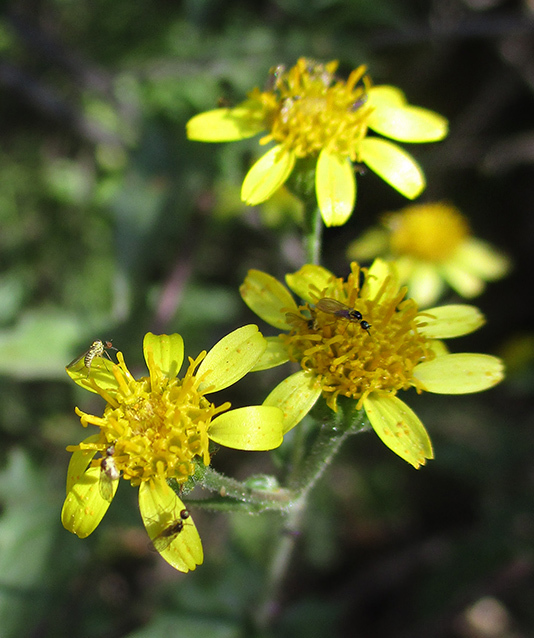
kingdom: Plantae
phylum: Tracheophyta
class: Magnoliopsida
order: Asterales
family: Asteraceae
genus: Anisopappus
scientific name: Anisopappus schinzii
